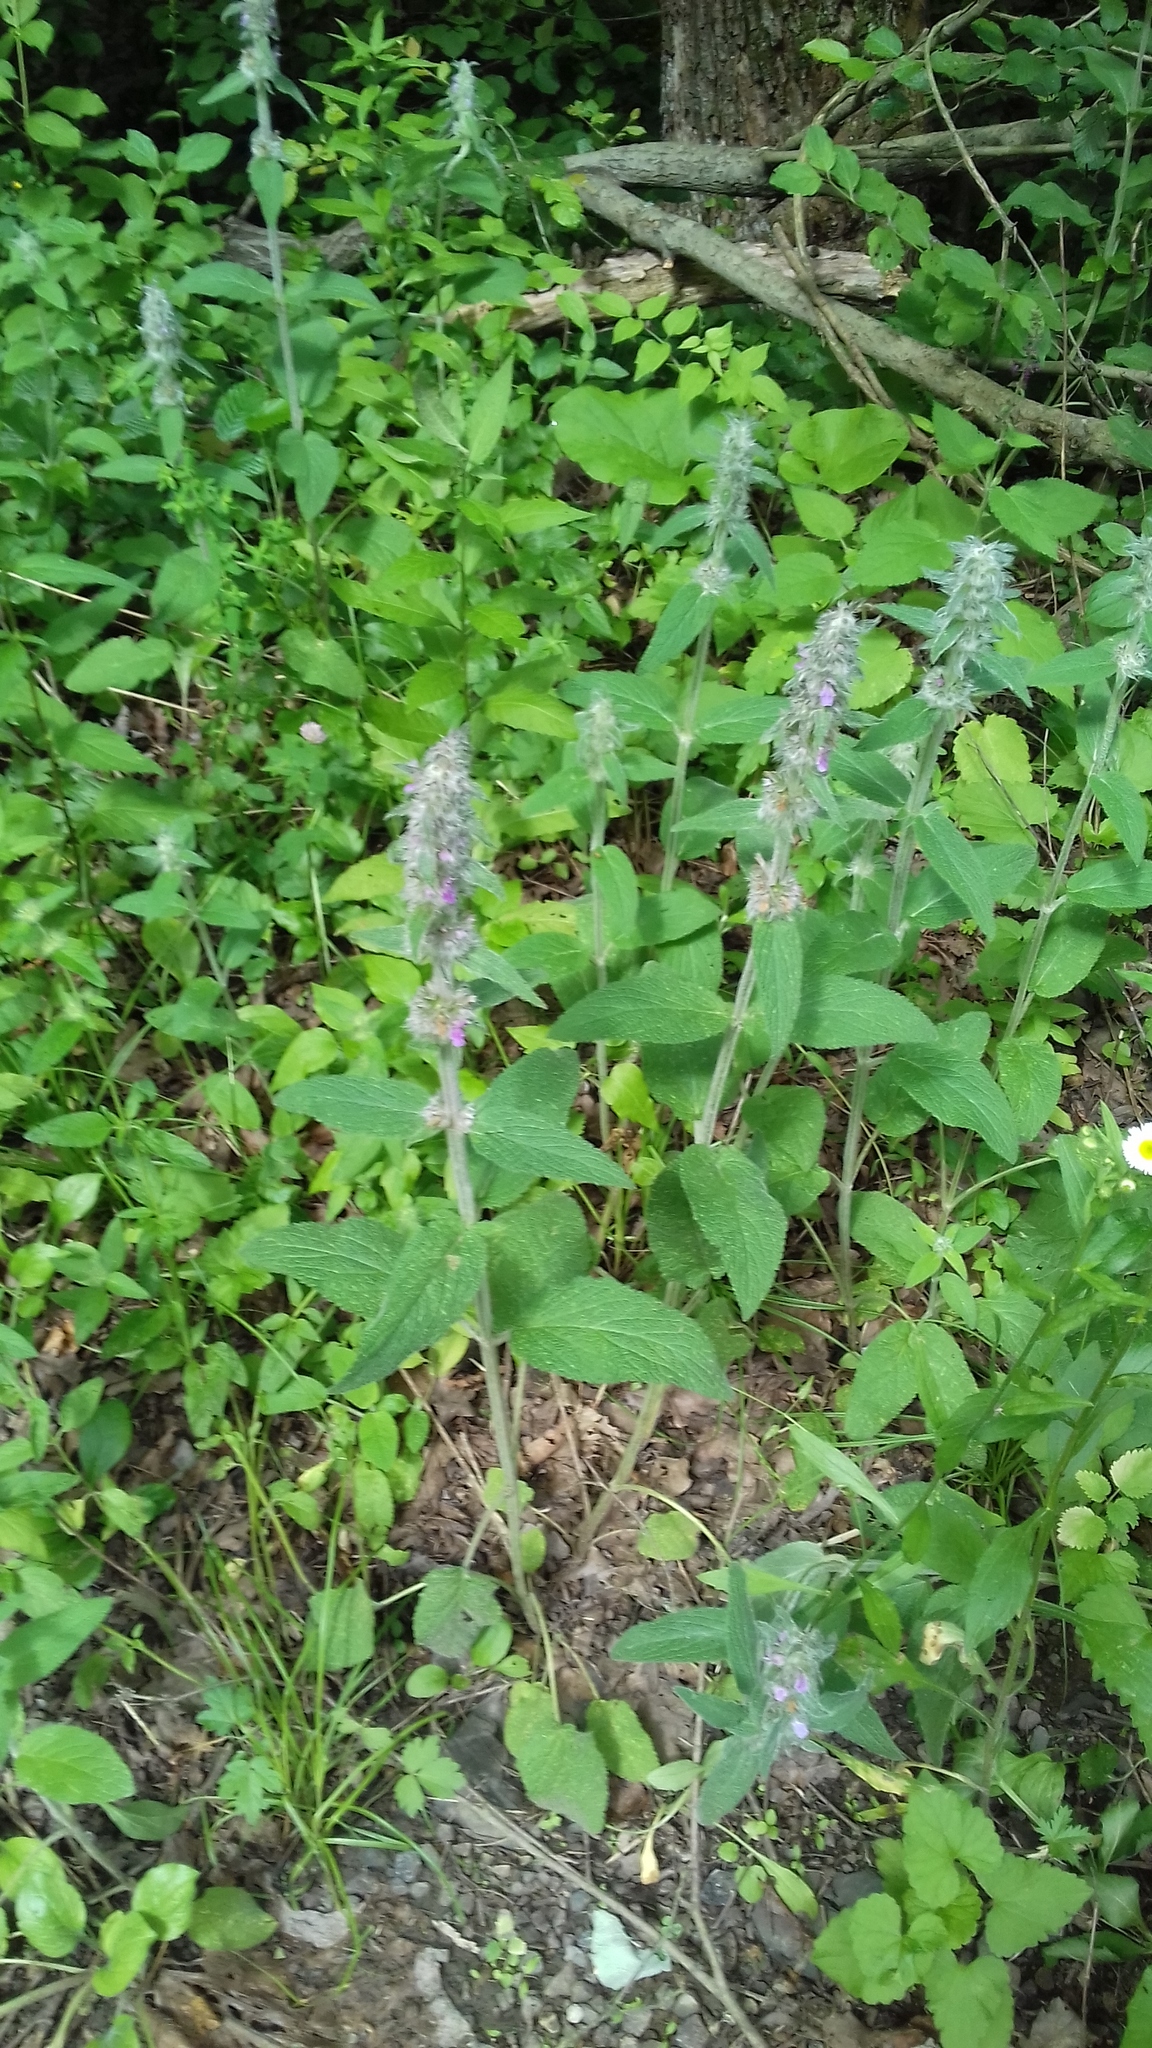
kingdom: Plantae
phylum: Tracheophyta
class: Magnoliopsida
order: Lamiales
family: Lamiaceae
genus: Stachys
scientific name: Stachys germanica
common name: Downy woundwort
